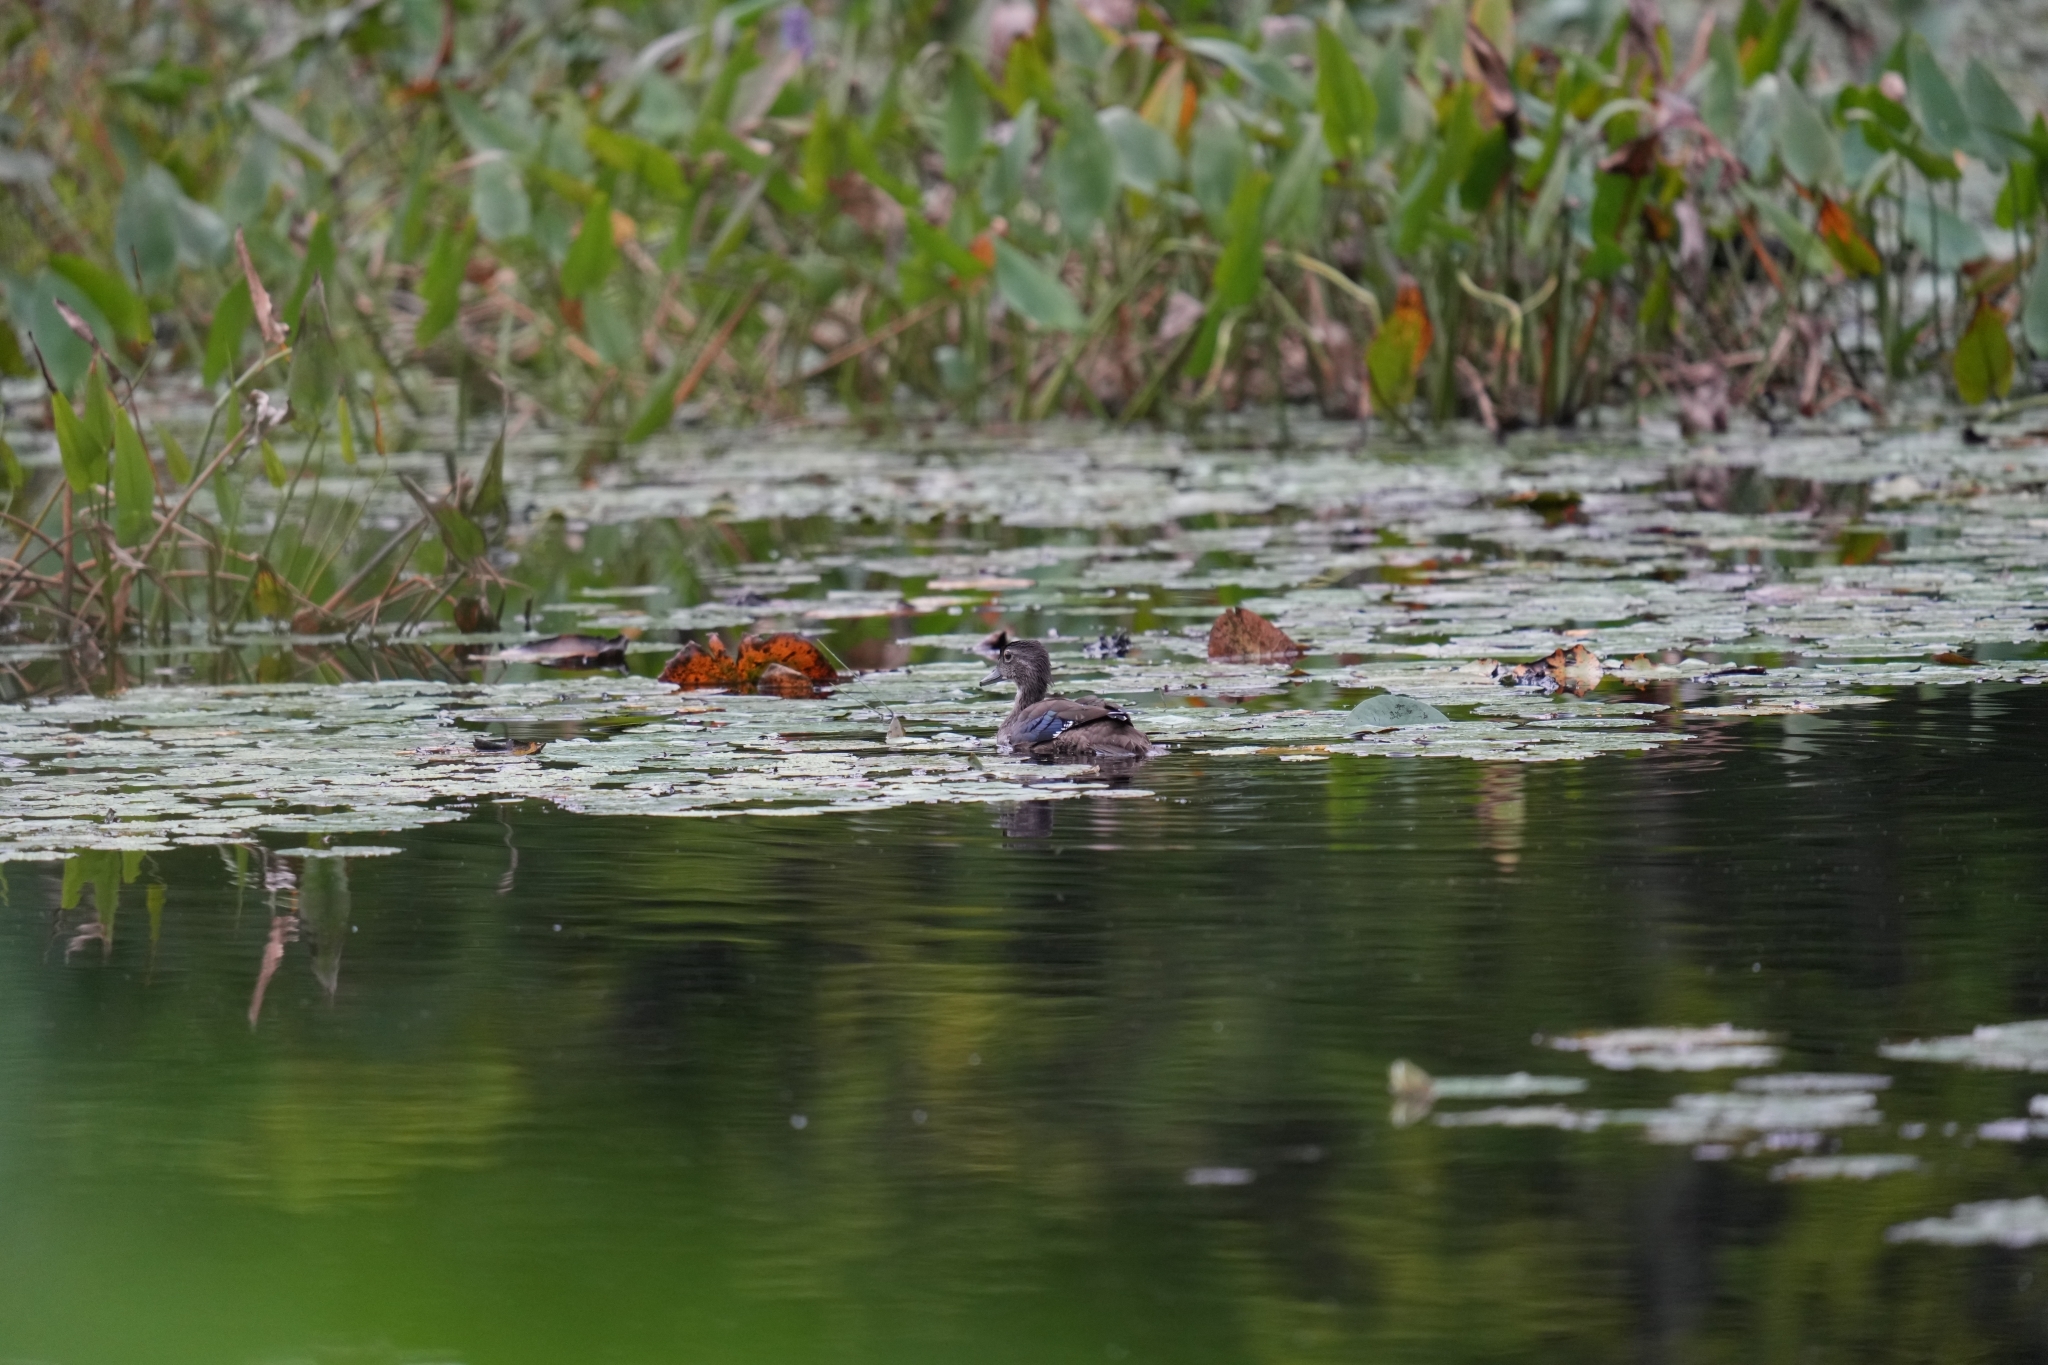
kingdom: Animalia
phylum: Chordata
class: Aves
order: Anseriformes
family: Anatidae
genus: Anas
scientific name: Anas platyrhynchos
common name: Mallard
